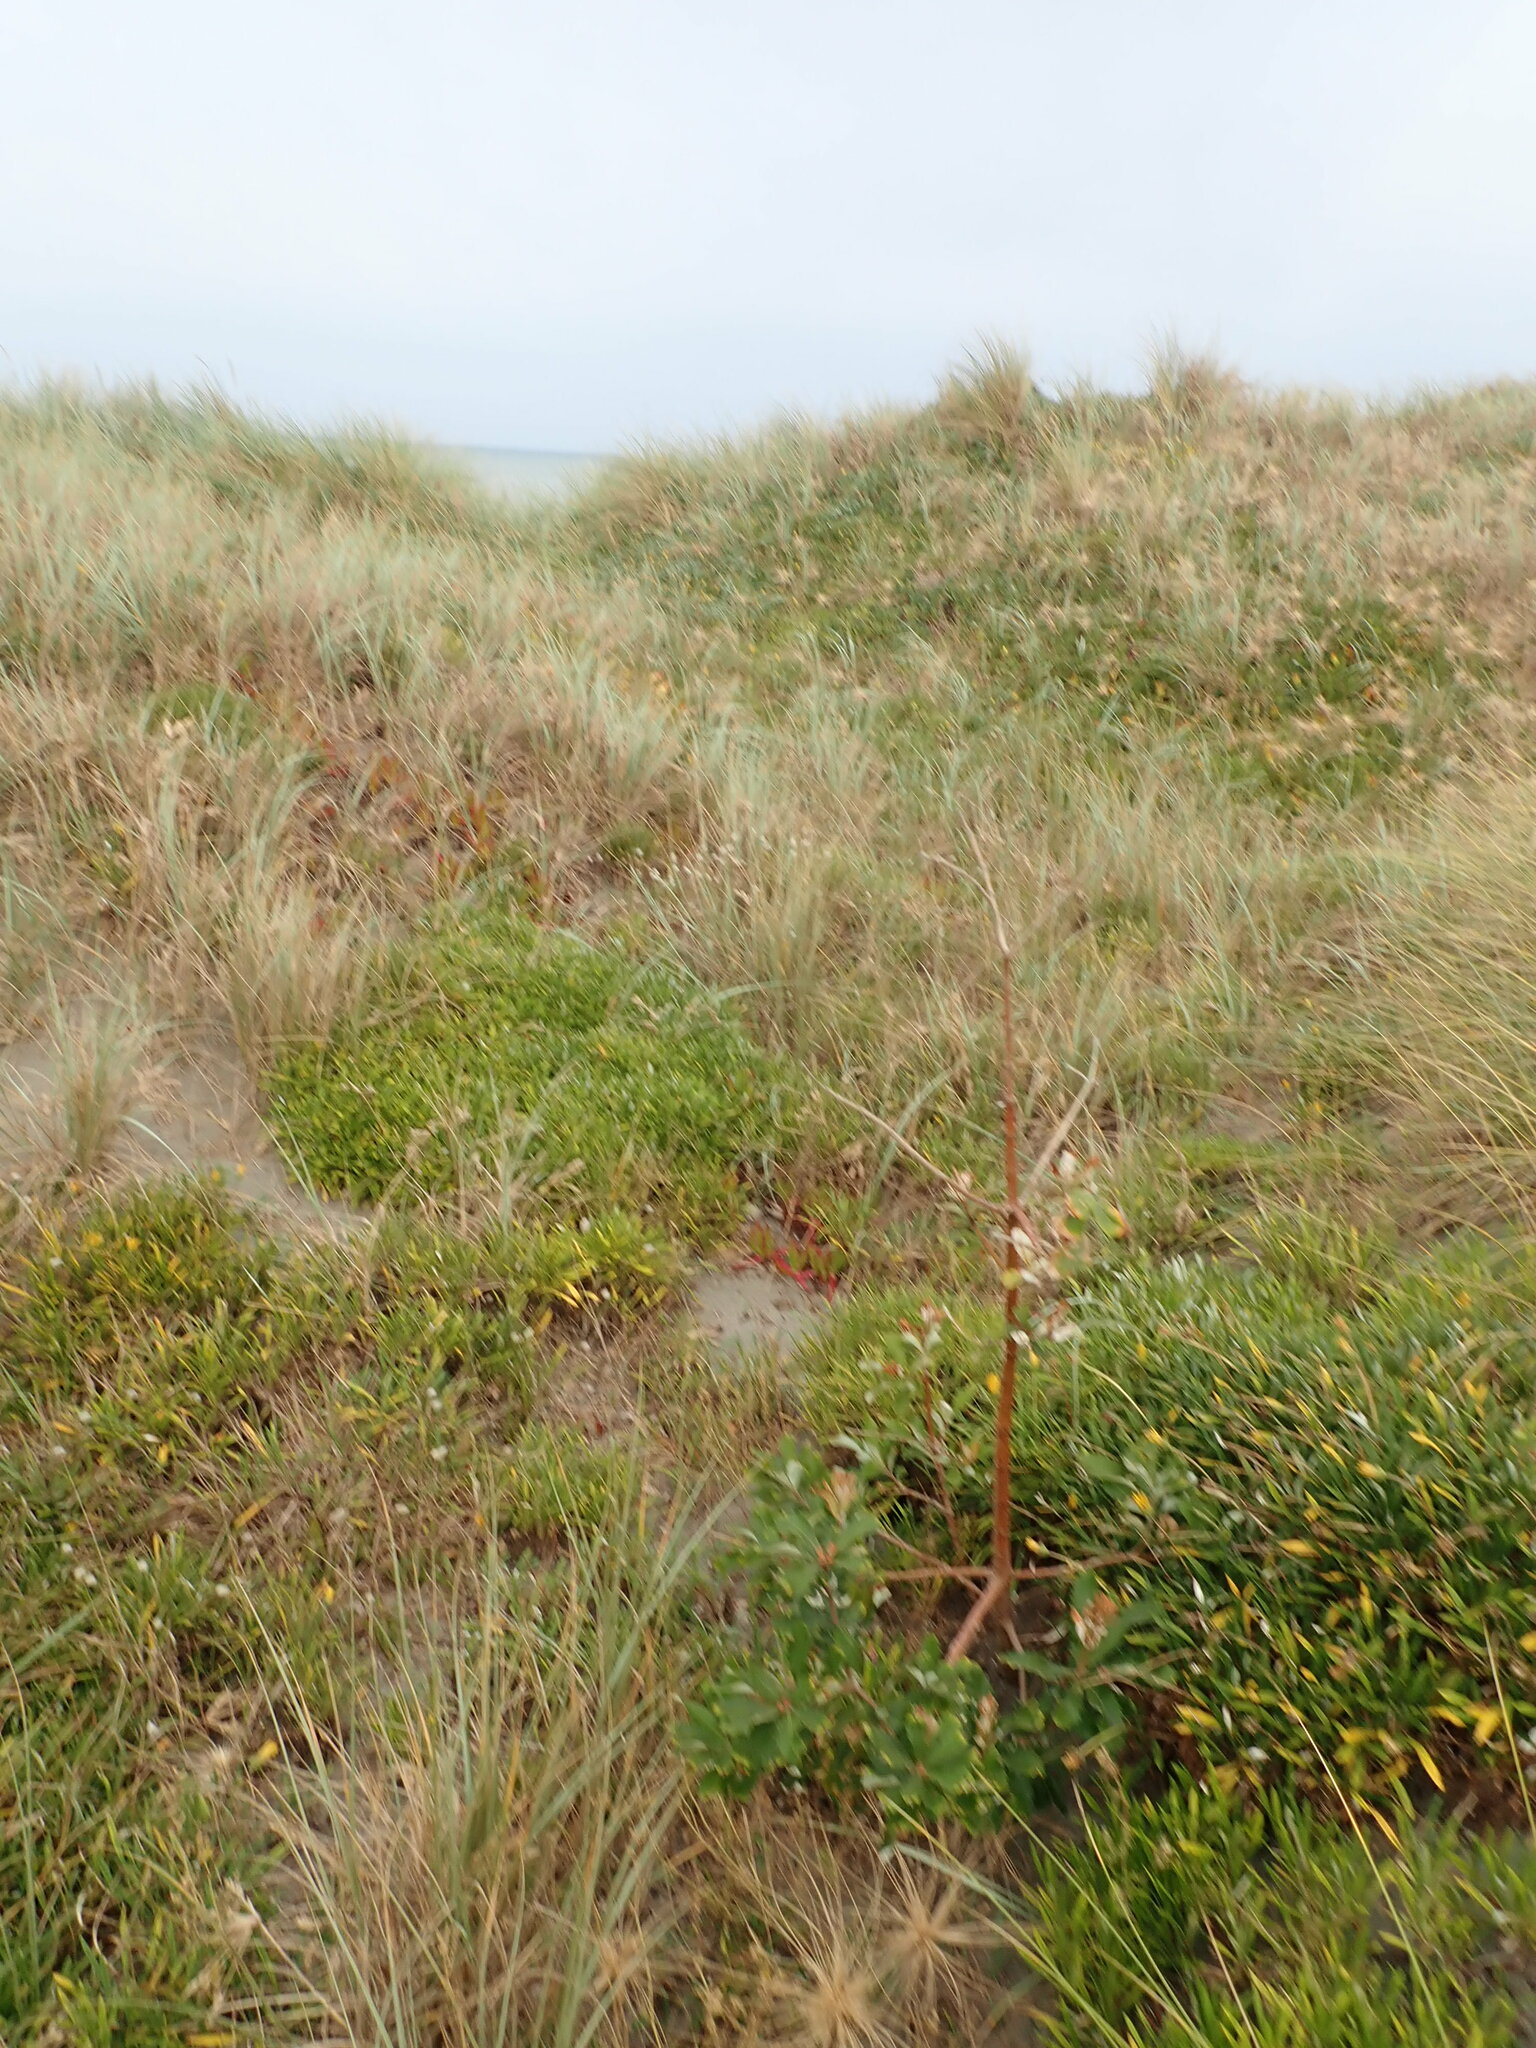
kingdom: Plantae
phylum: Tracheophyta
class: Magnoliopsida
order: Proteales
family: Proteaceae
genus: Banksia
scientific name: Banksia integrifolia
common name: White-honeysuckle
